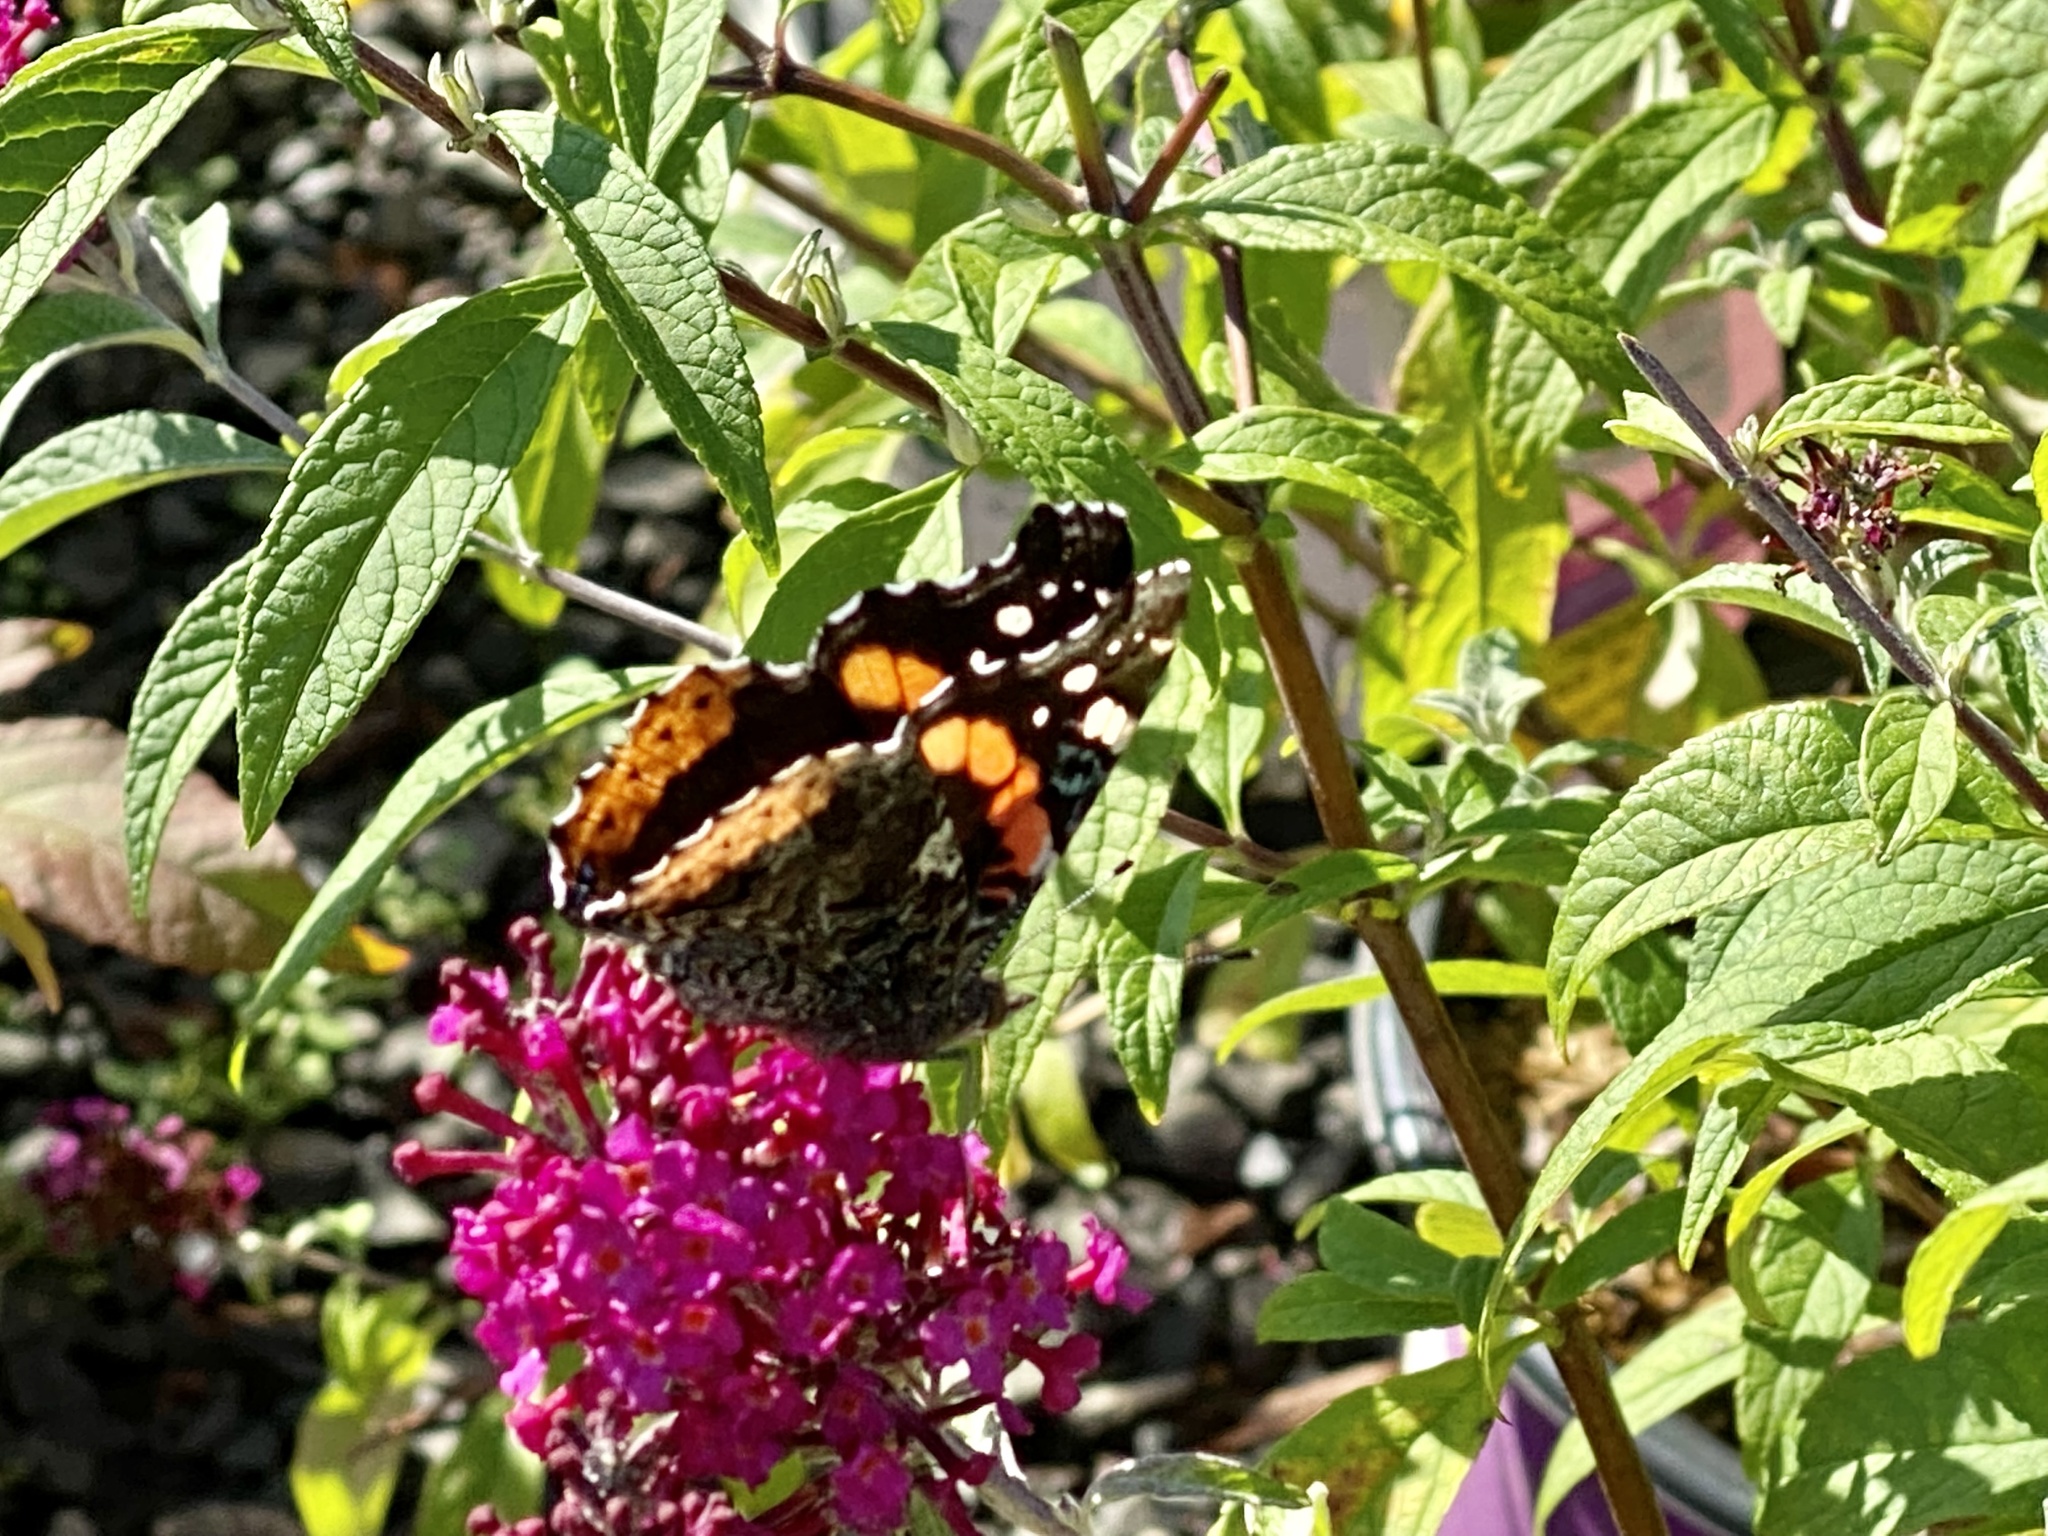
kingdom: Animalia
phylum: Arthropoda
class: Insecta
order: Lepidoptera
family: Nymphalidae
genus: Vanessa
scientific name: Vanessa atalanta
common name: Red admiral
